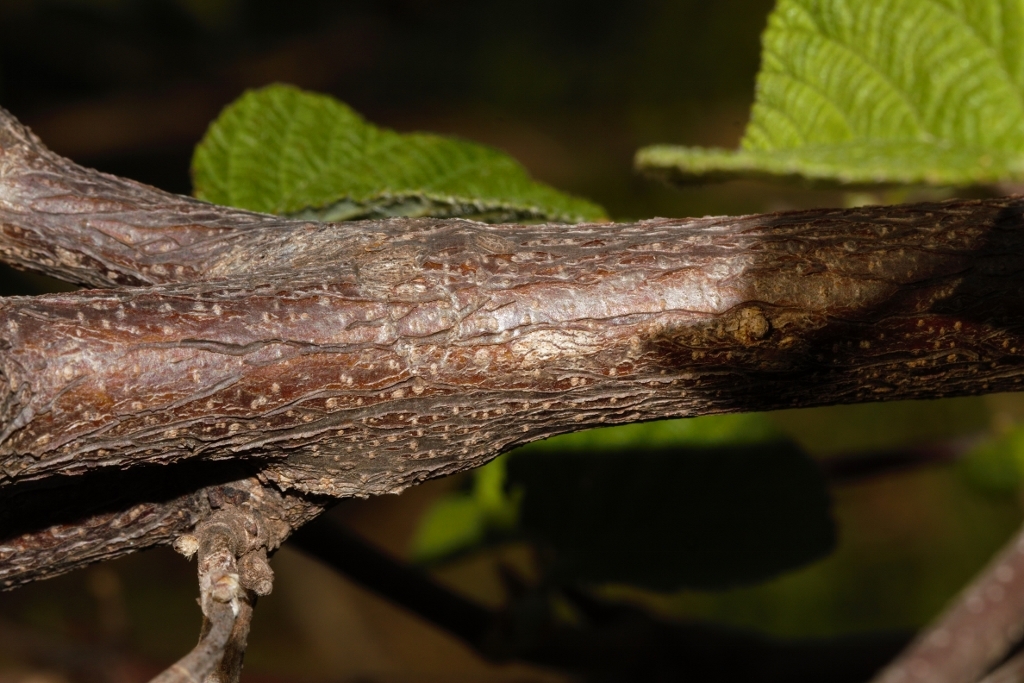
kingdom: Plantae
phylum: Tracheophyta
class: Magnoliopsida
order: Malvales
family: Malvaceae
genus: Grewia
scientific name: Grewia villosa
